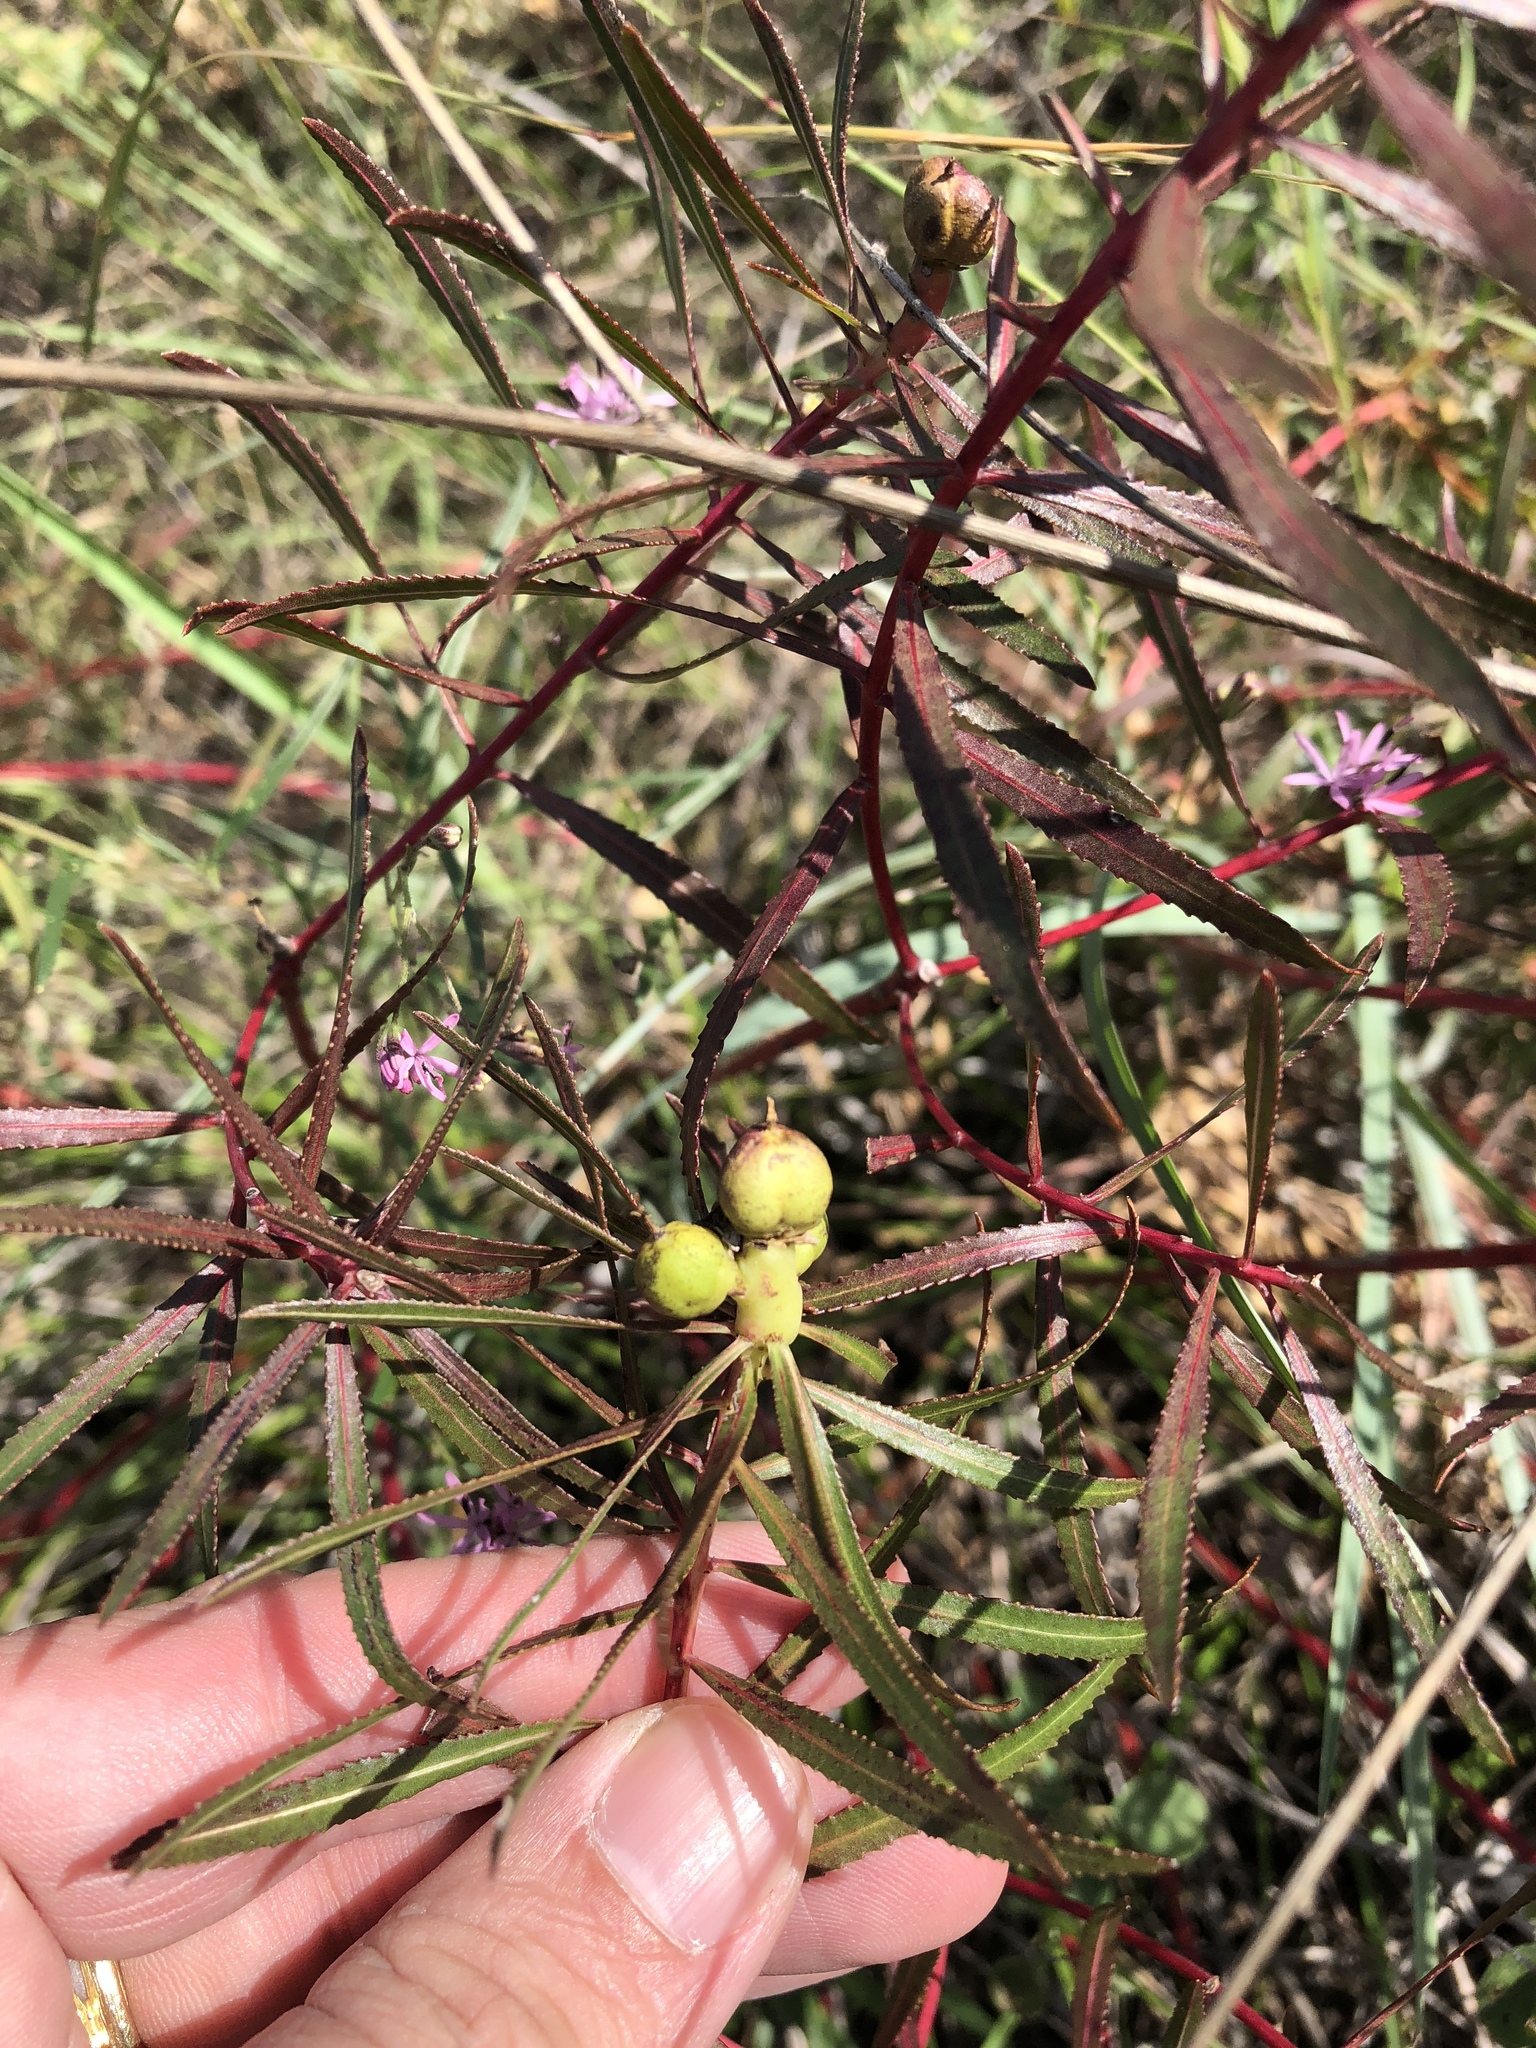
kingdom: Plantae
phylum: Tracheophyta
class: Magnoliopsida
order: Malpighiales
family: Euphorbiaceae
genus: Stillingia
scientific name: Stillingia texana
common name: Texas stillingia
